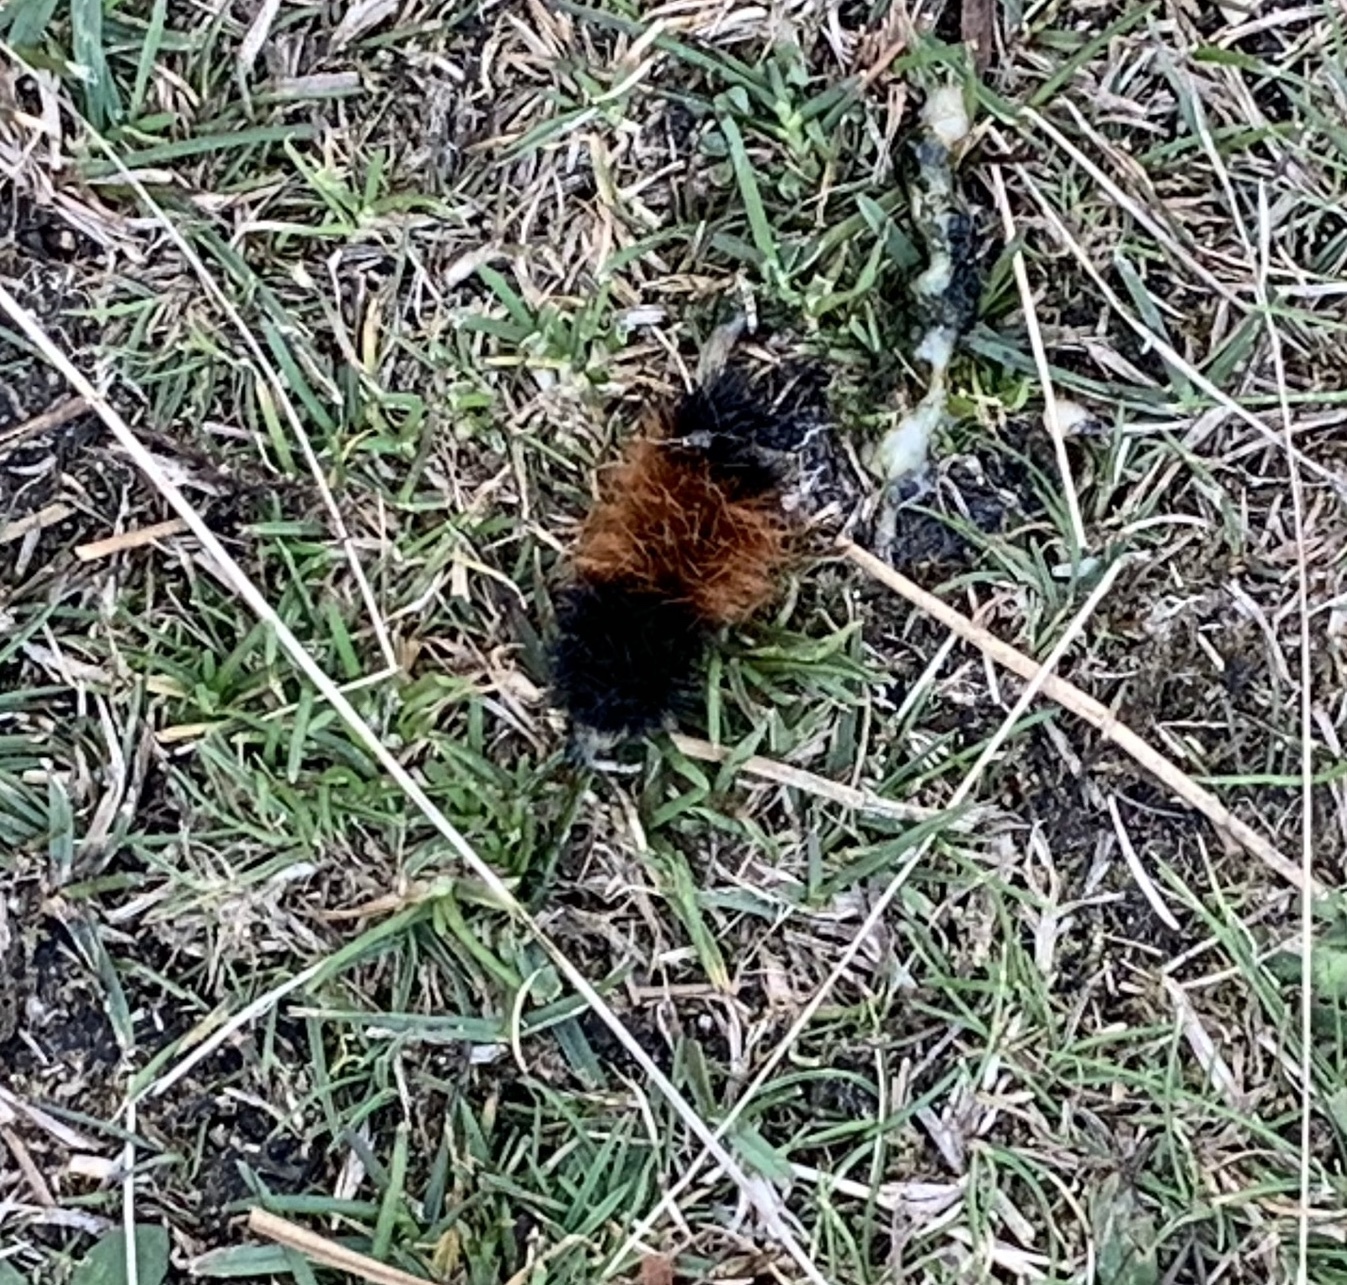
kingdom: Animalia
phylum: Arthropoda
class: Insecta
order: Lepidoptera
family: Erebidae
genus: Pyrrharctia
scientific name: Pyrrharctia isabella
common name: Isabella tiger moth
